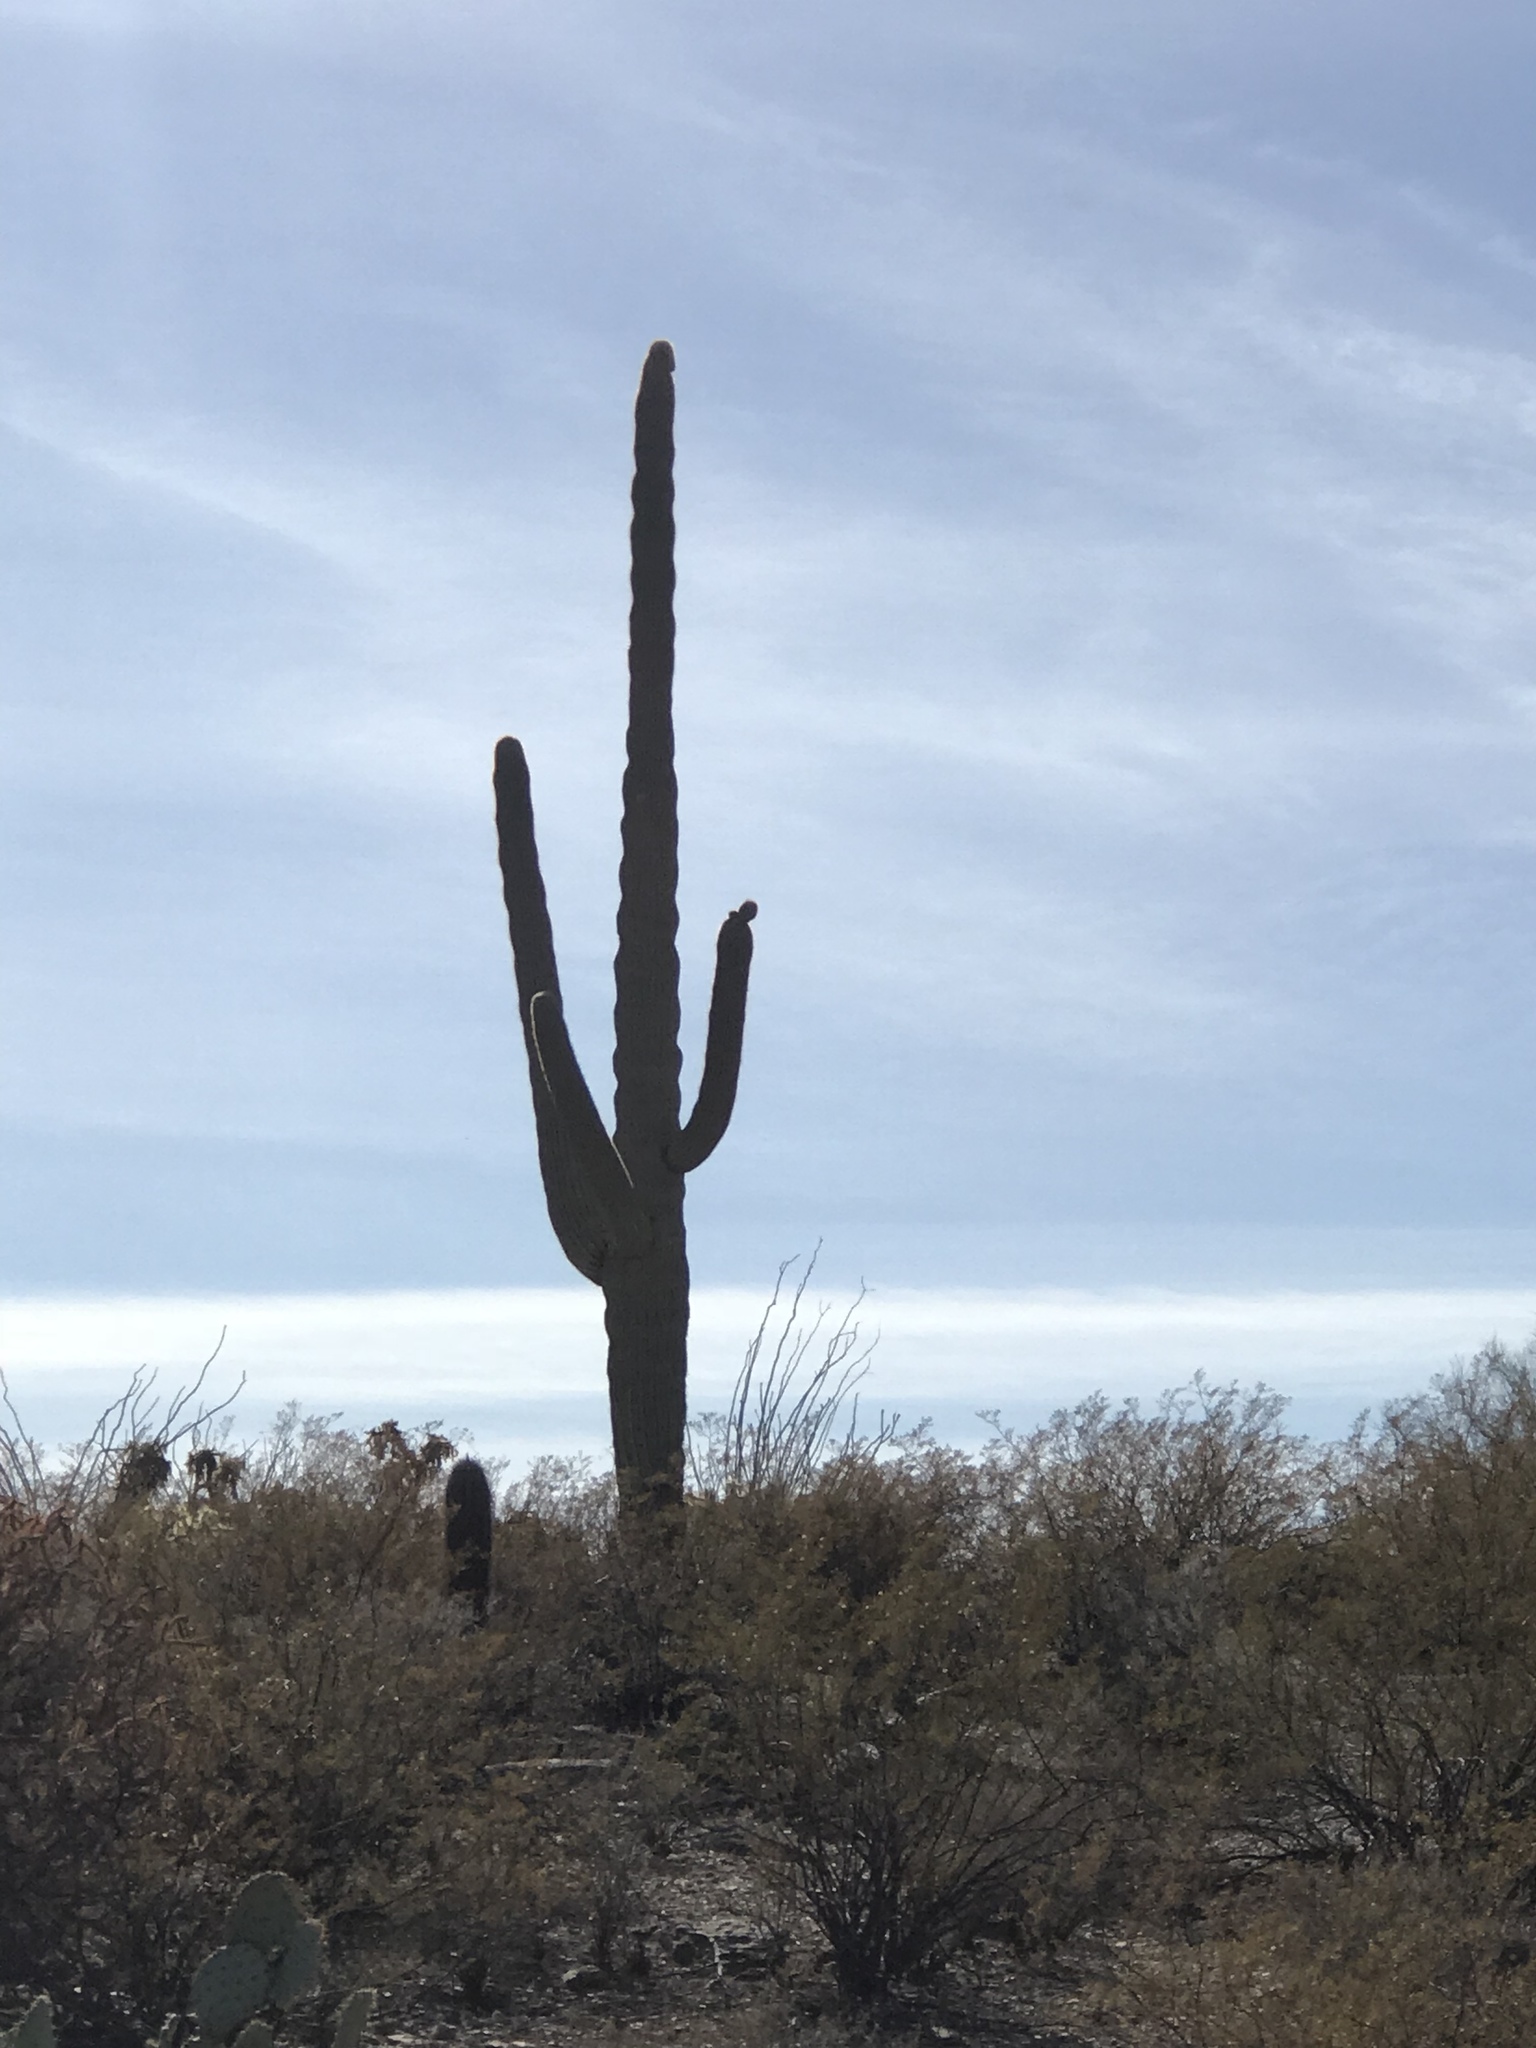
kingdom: Plantae
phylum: Tracheophyta
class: Magnoliopsida
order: Caryophyllales
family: Cactaceae
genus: Carnegiea
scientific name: Carnegiea gigantea
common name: Saguaro
